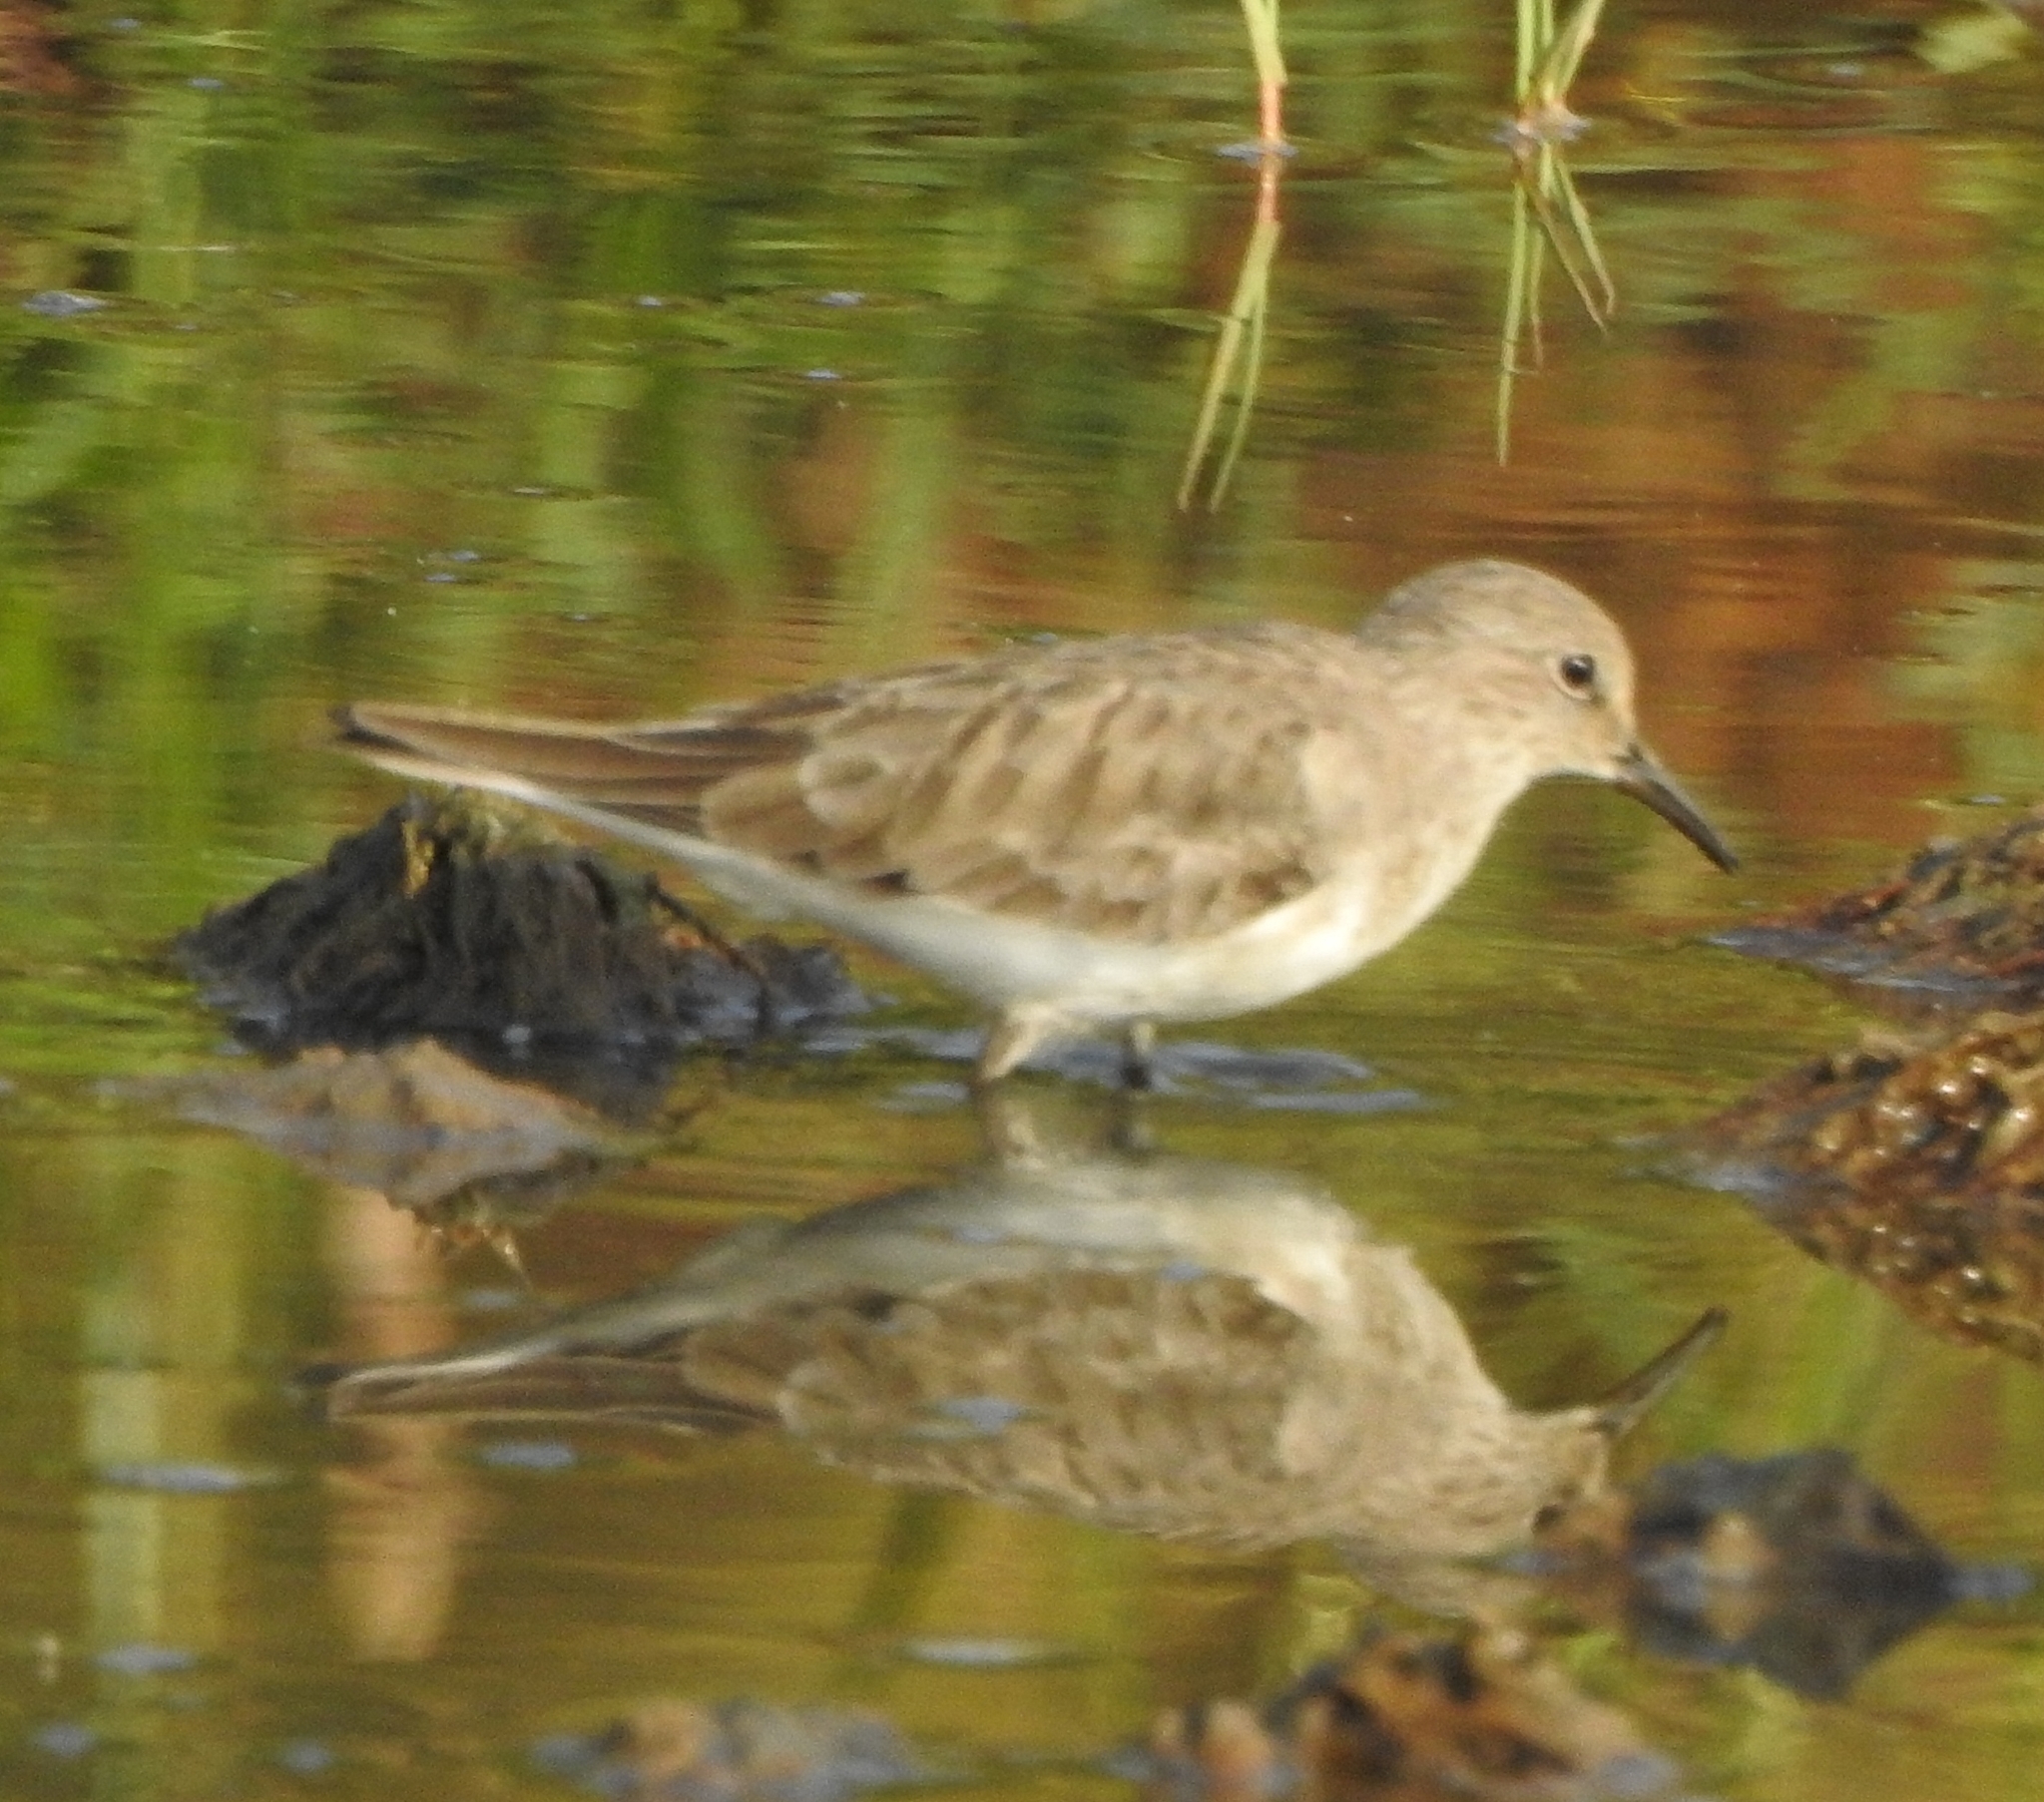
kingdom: Animalia
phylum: Chordata
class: Aves
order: Charadriiformes
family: Scolopacidae
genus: Calidris
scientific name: Calidris temminckii
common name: Temminck's stint
